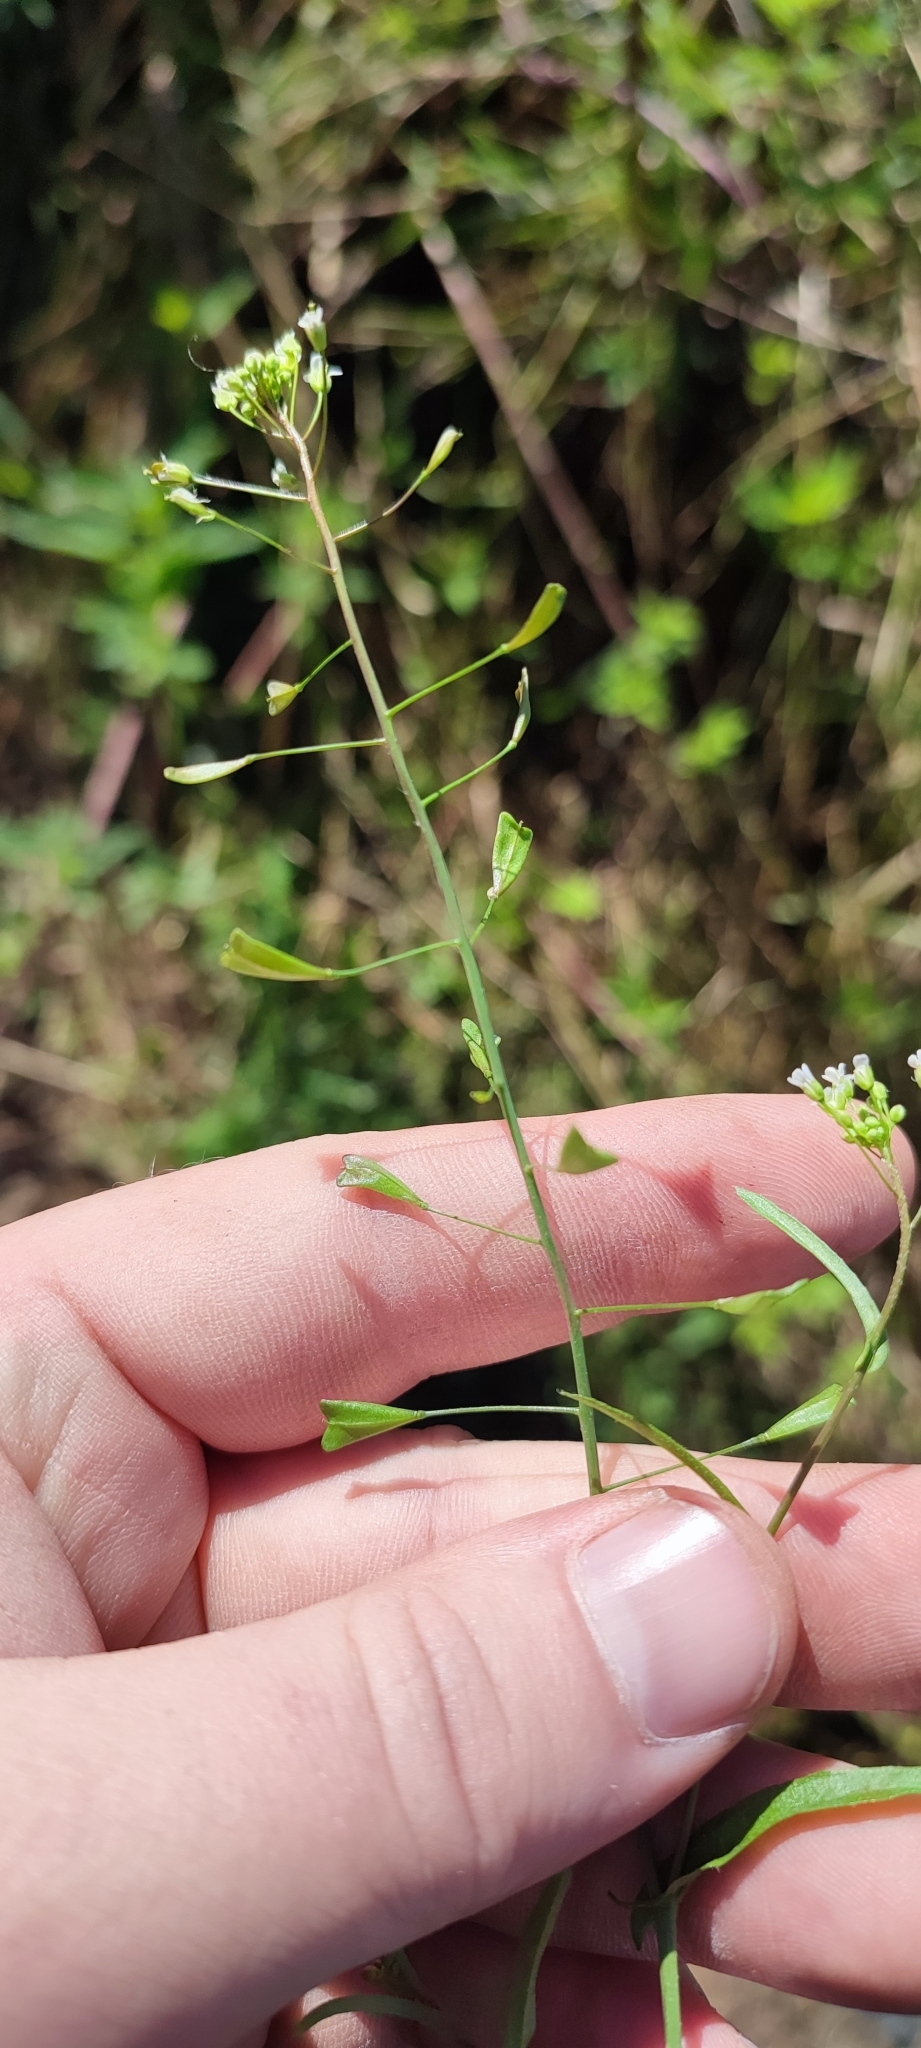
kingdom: Plantae
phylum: Tracheophyta
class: Magnoliopsida
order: Brassicales
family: Brassicaceae
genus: Capsella
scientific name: Capsella bursa-pastoris
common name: Shepherd's purse
